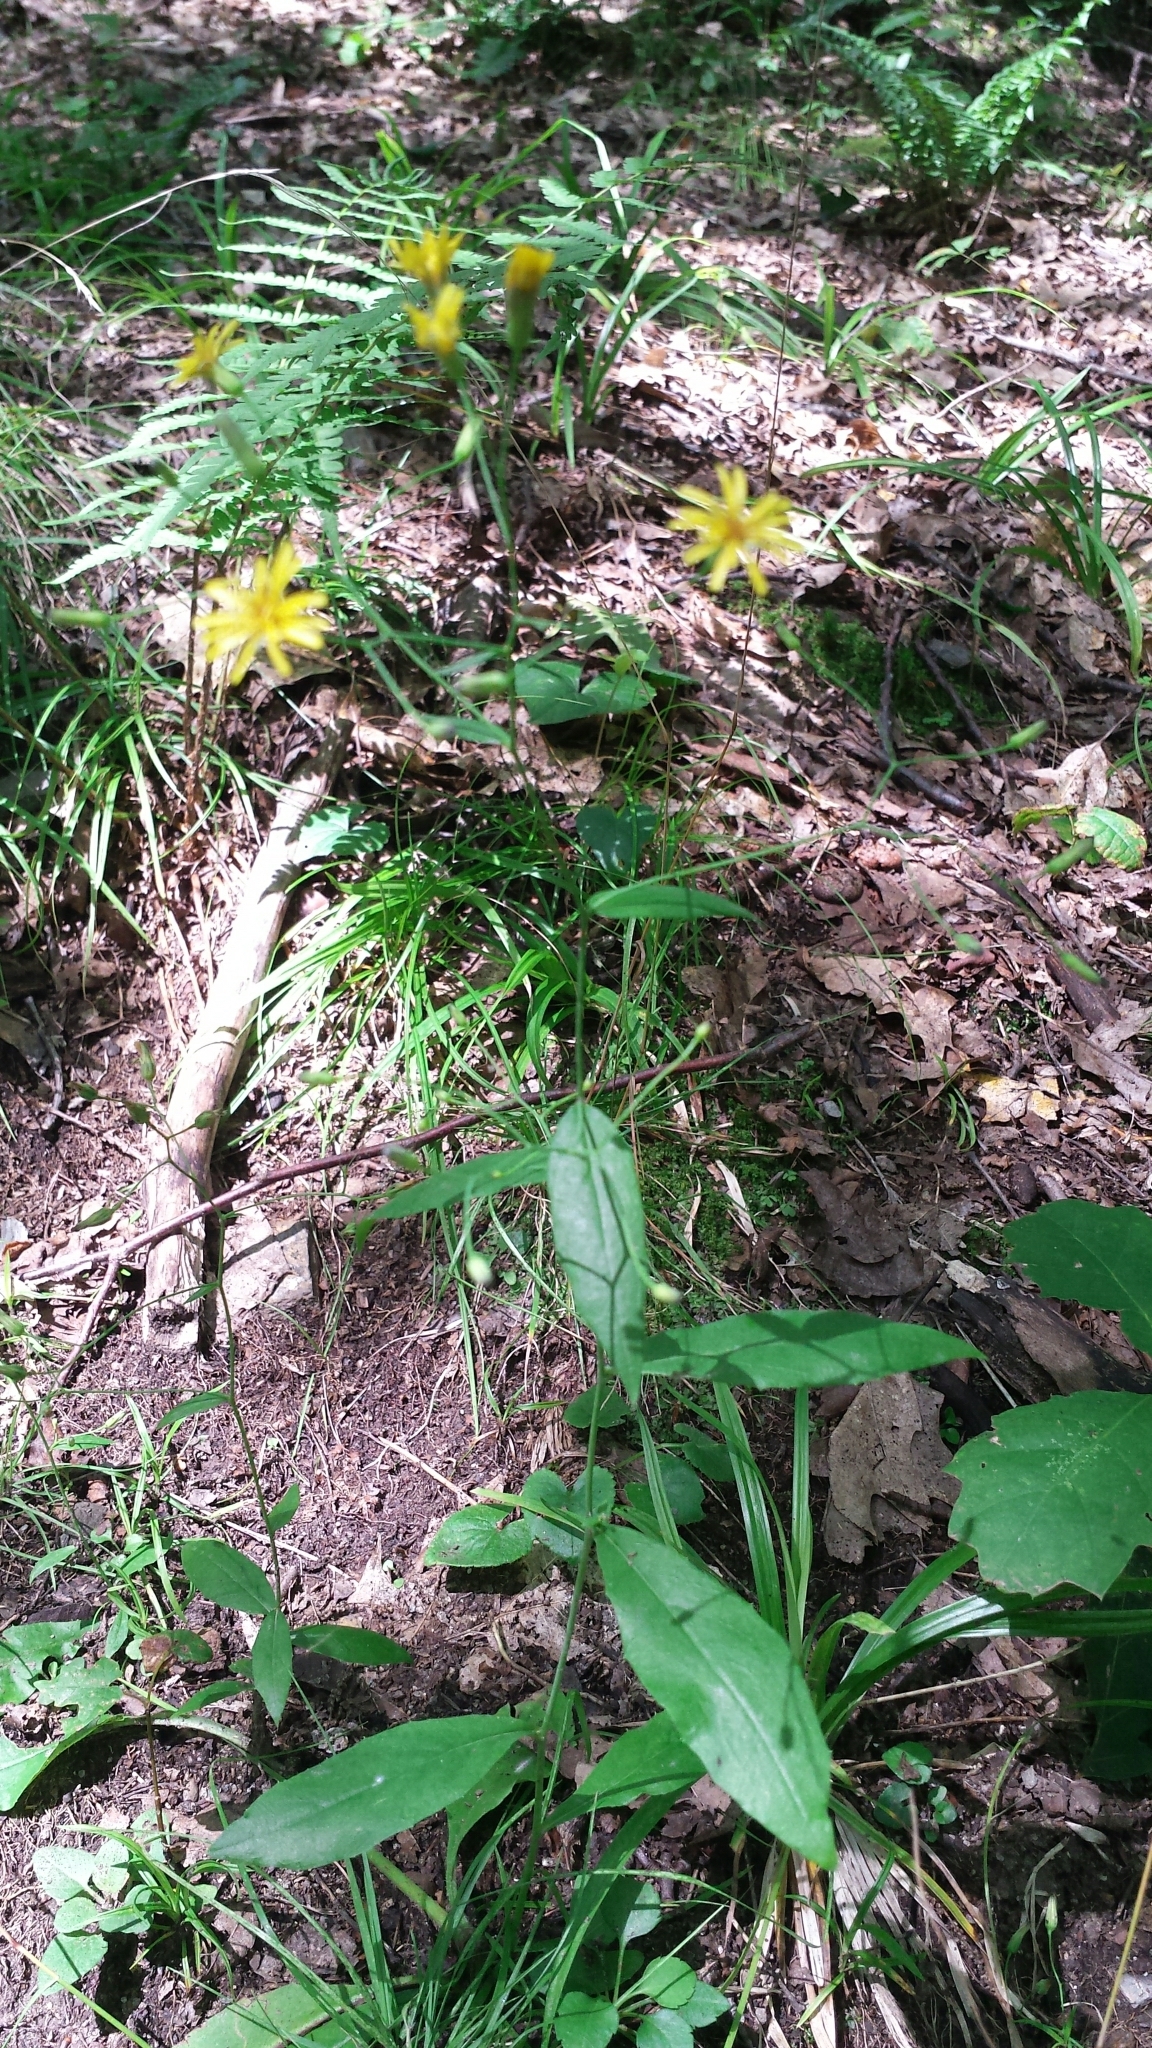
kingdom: Plantae
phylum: Tracheophyta
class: Magnoliopsida
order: Asterales
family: Asteraceae
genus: Hieracium
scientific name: Hieracium paniculatum
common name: Allegheny hawkweed
